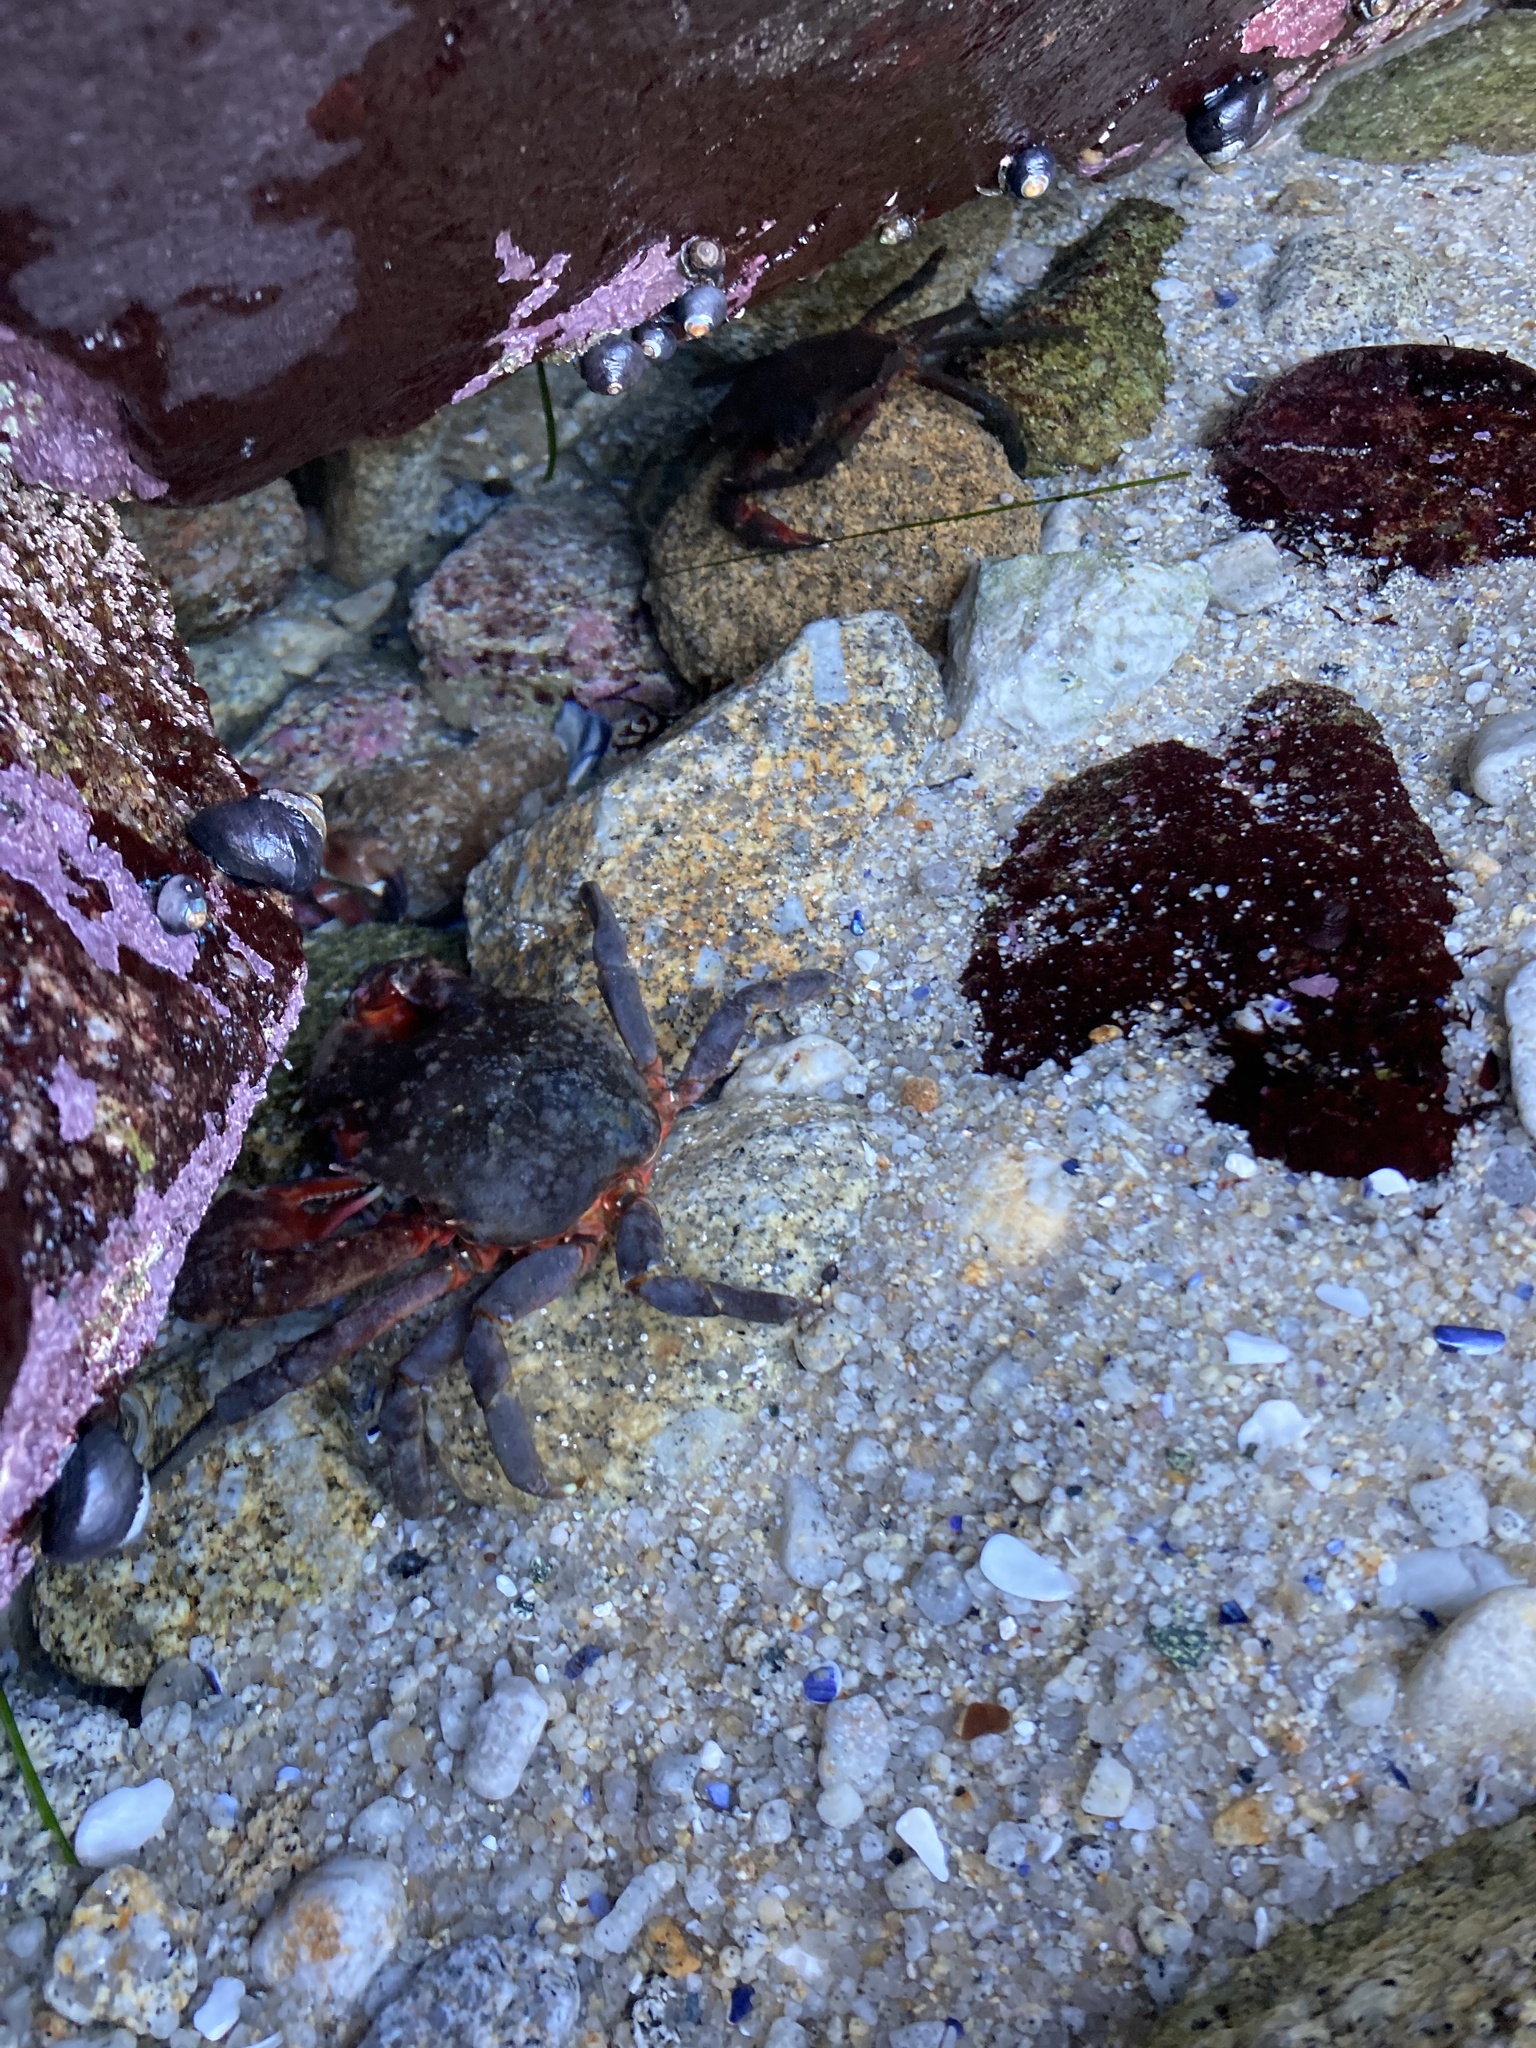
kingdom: Animalia
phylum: Arthropoda
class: Malacostraca
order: Decapoda
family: Epialtidae
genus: Pugettia
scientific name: Pugettia producta
